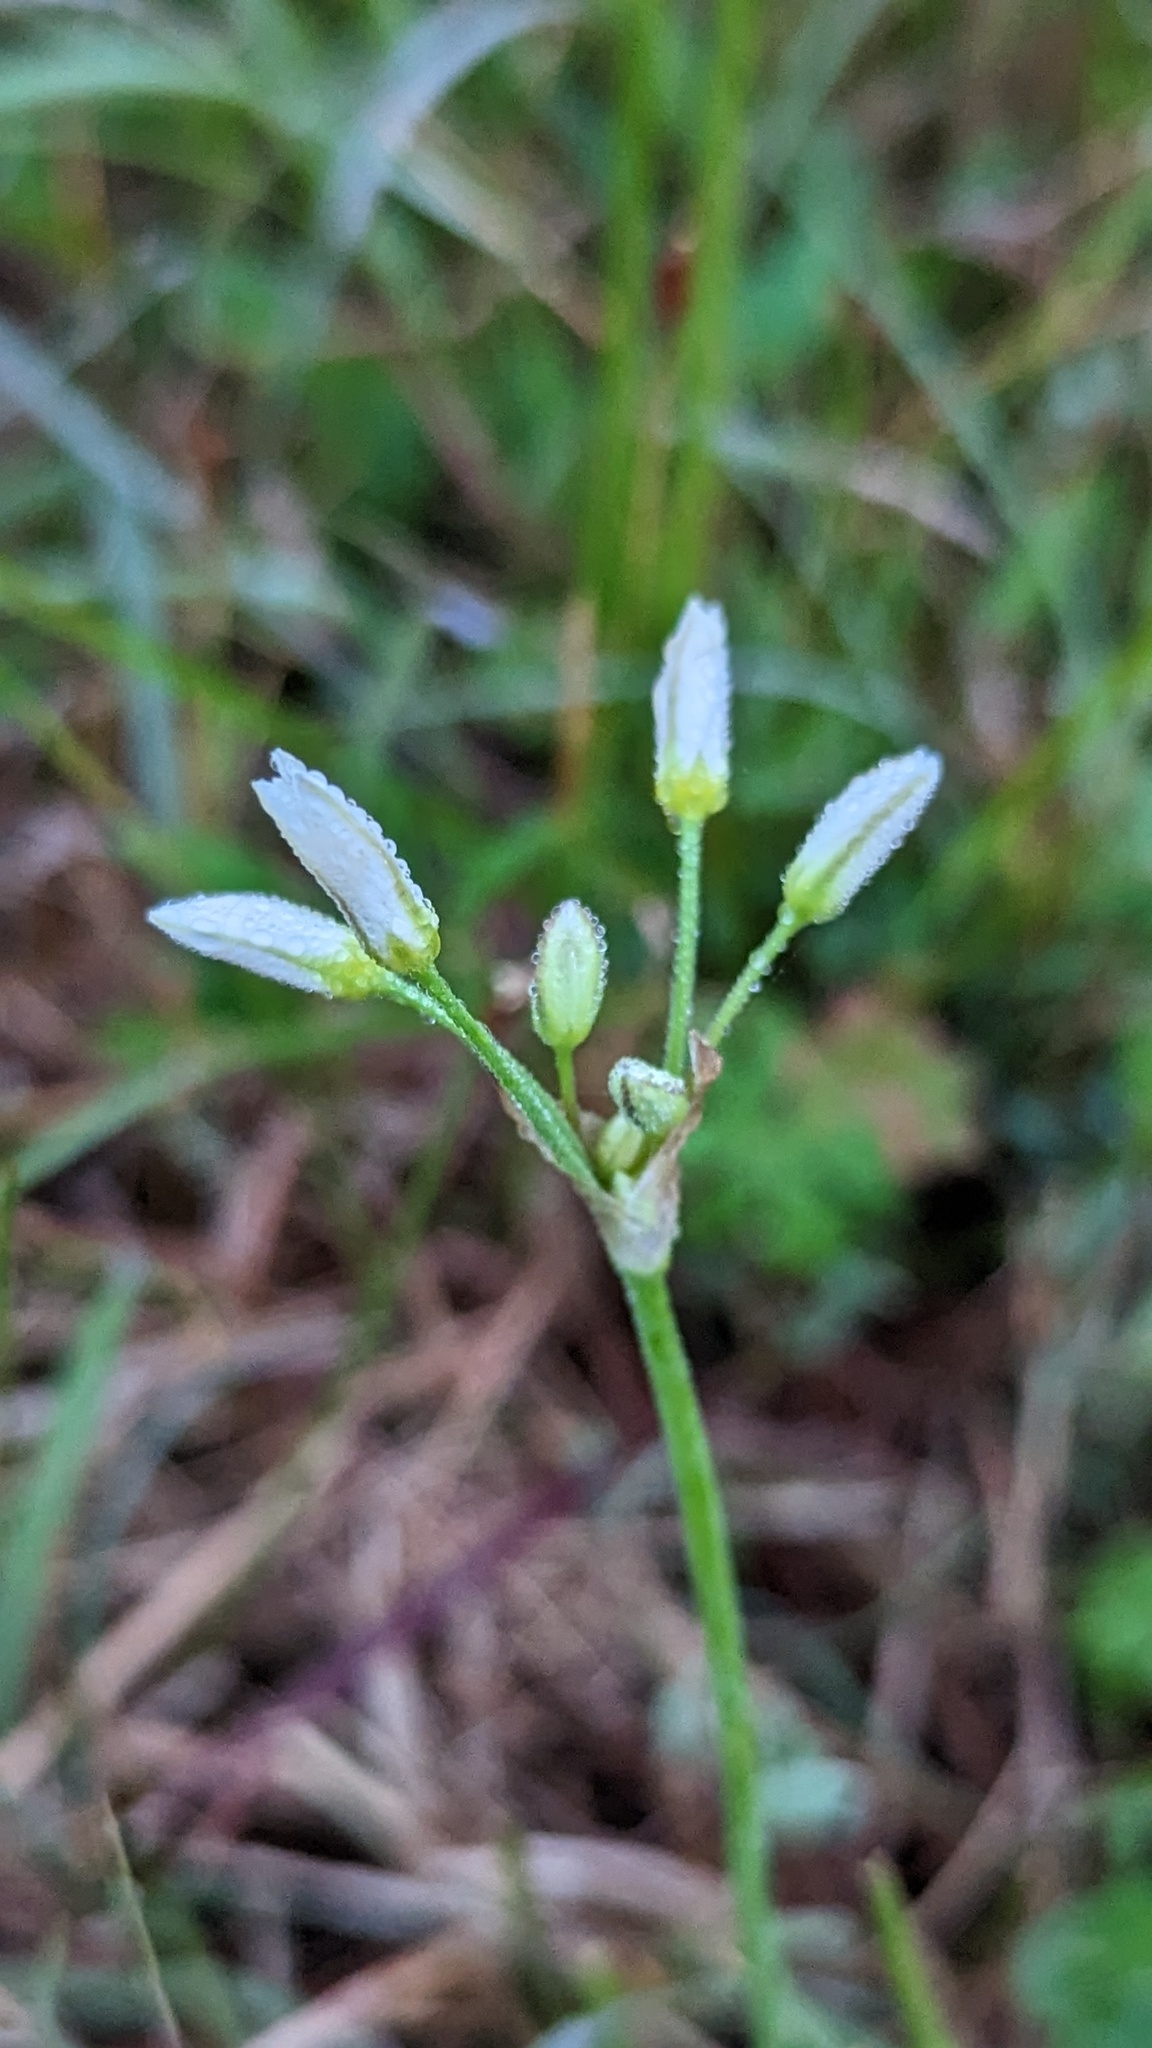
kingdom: Plantae
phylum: Tracheophyta
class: Liliopsida
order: Asparagales
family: Amaryllidaceae
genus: Nothoscordum
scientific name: Nothoscordum bivalve
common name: Crow-poison
